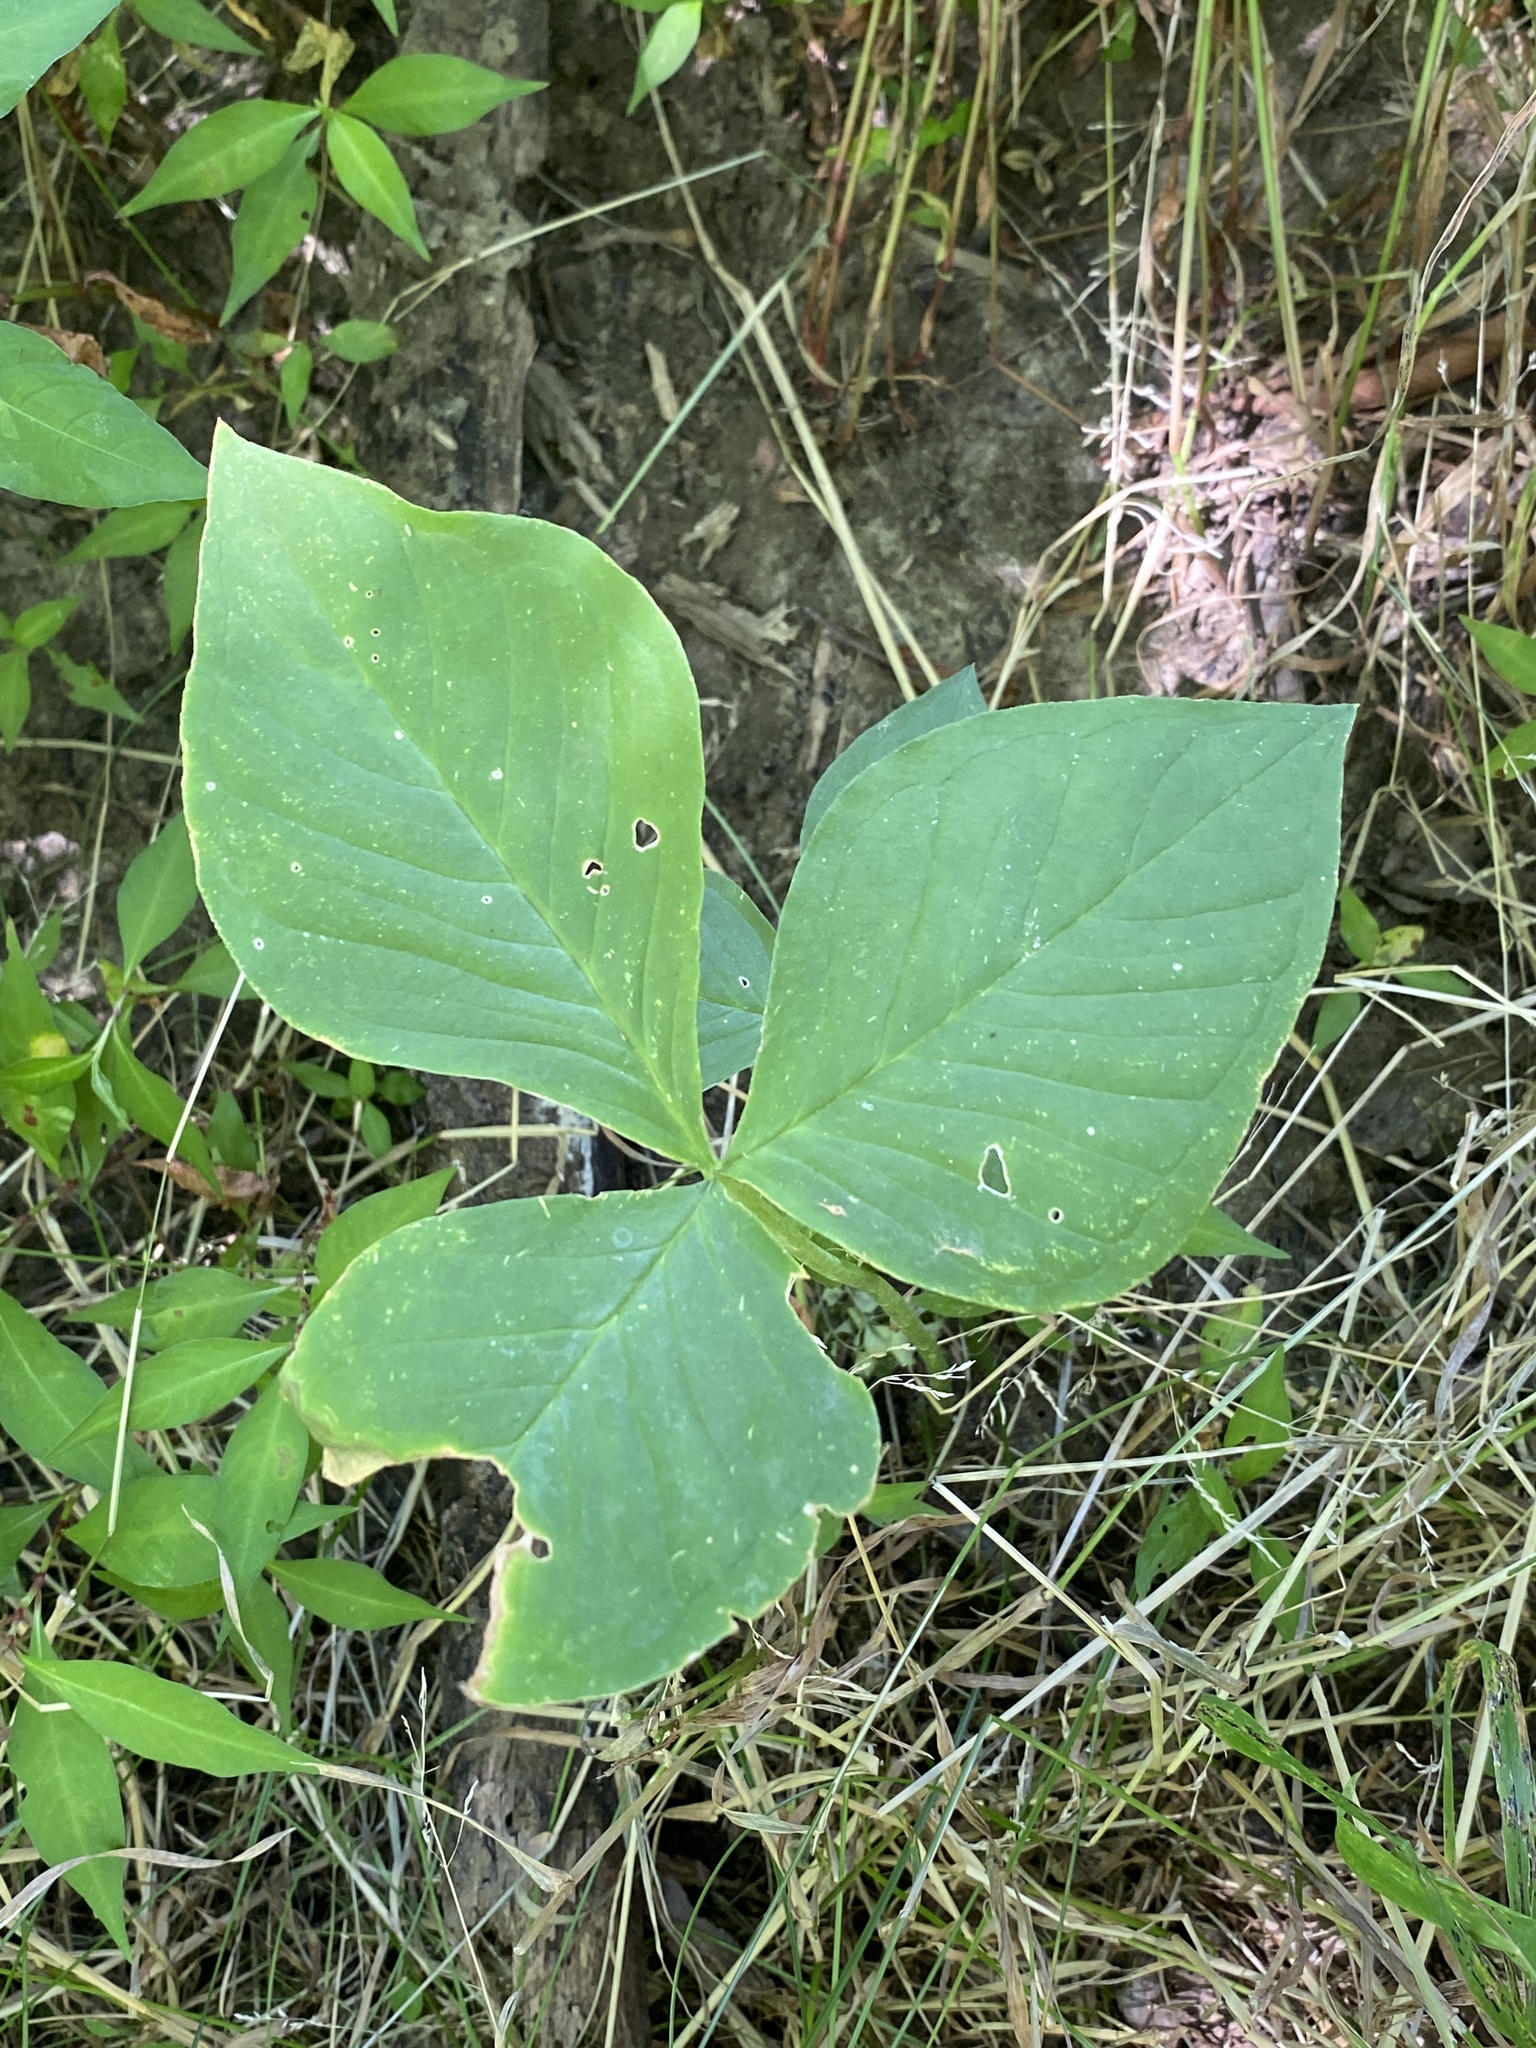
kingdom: Plantae
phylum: Tracheophyta
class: Liliopsida
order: Alismatales
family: Araceae
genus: Arisaema
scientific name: Arisaema triphyllum
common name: Jack-in-the-pulpit
